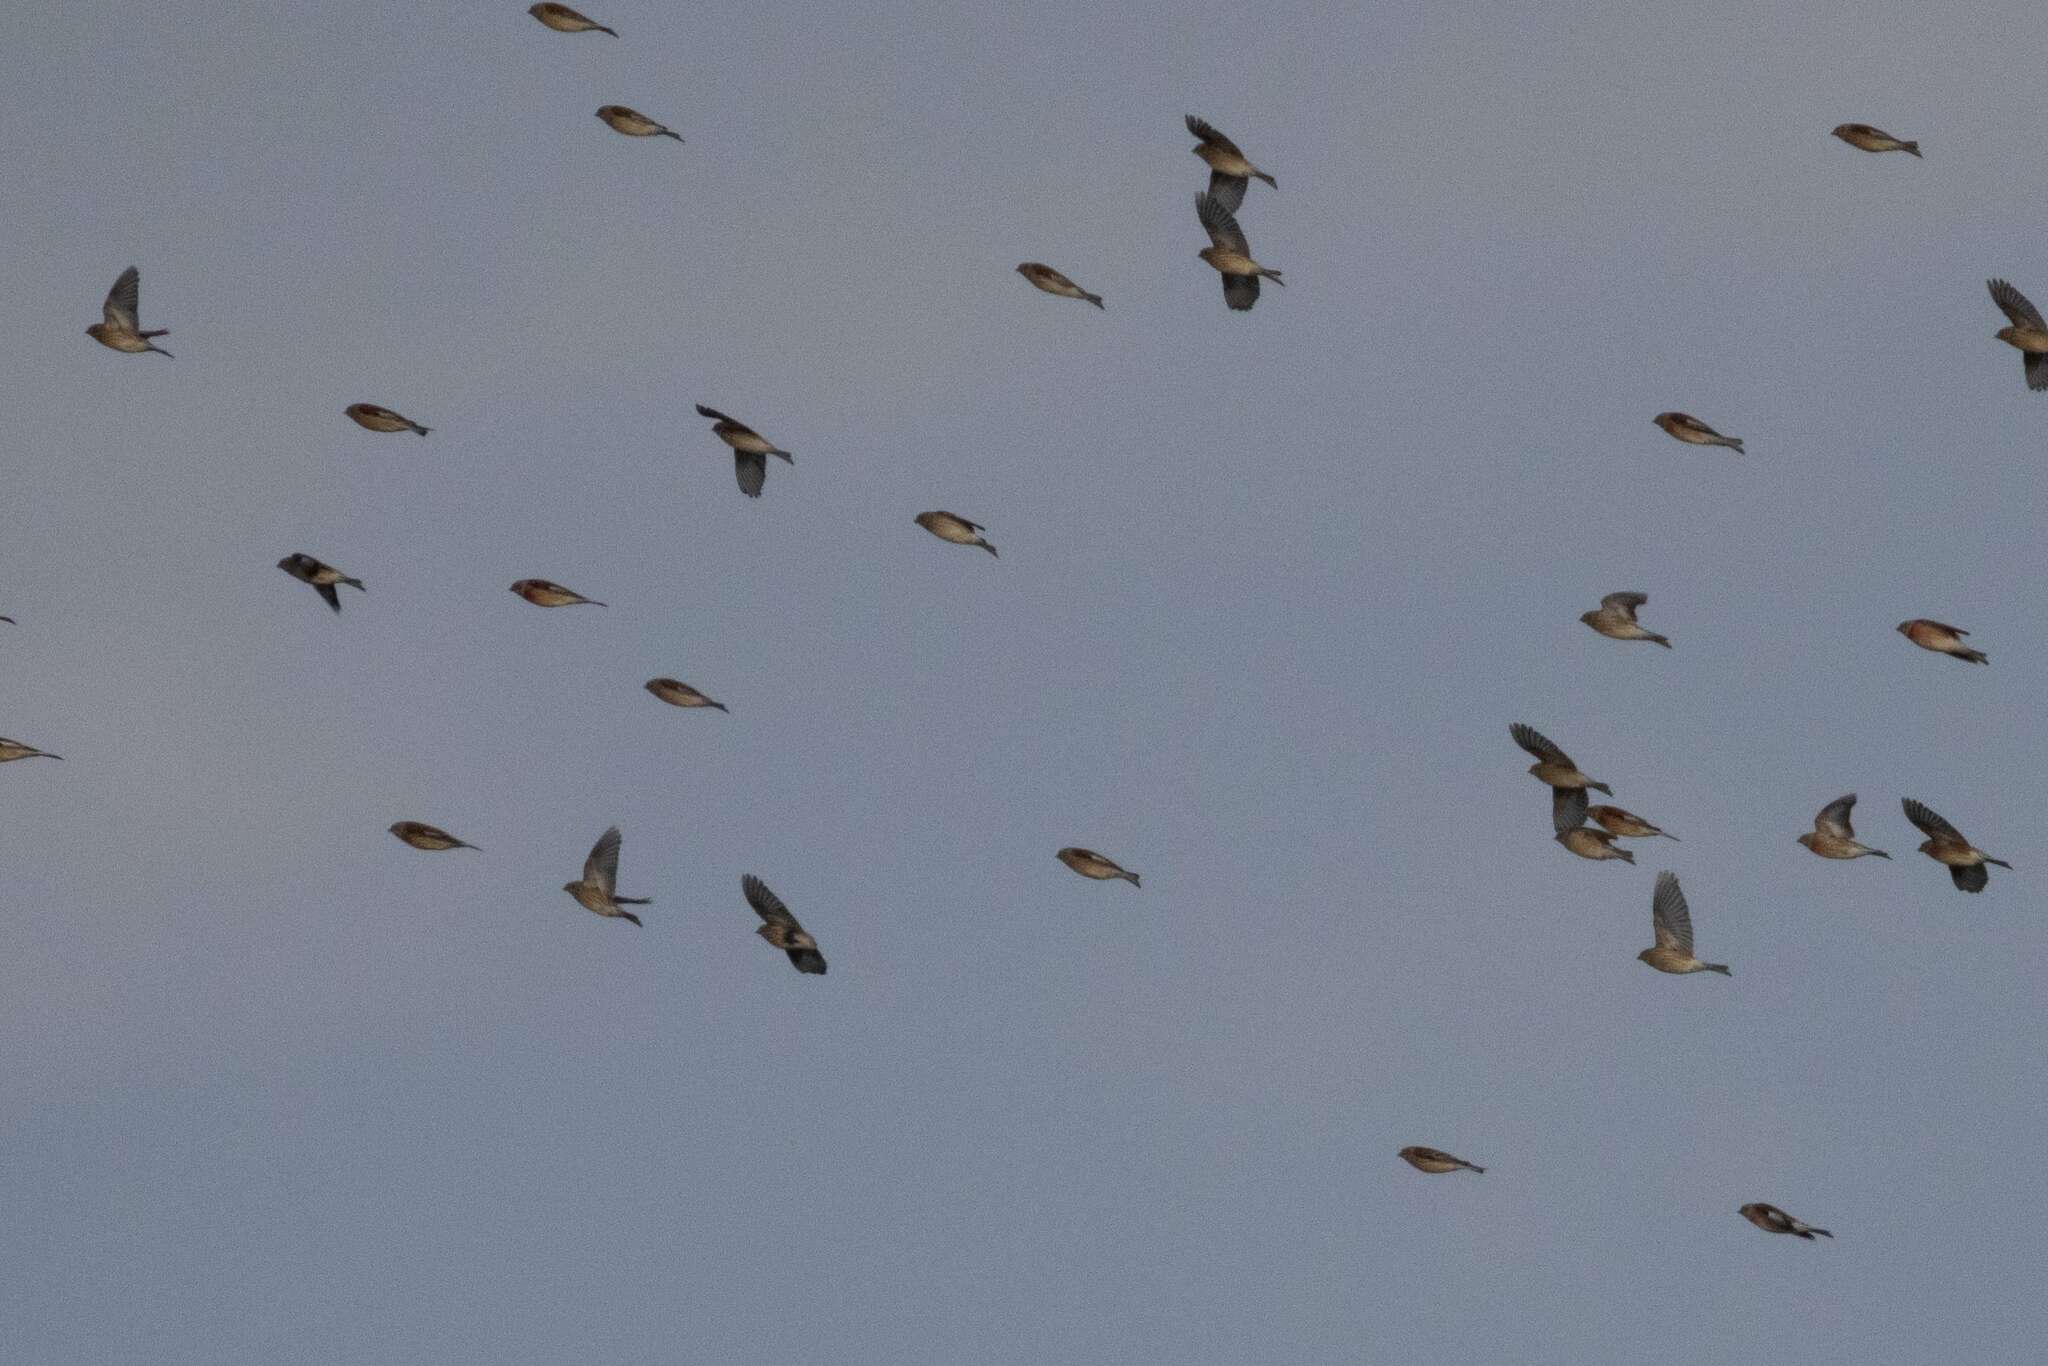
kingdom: Animalia
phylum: Chordata
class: Aves
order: Passeriformes
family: Fringillidae
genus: Linaria
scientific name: Linaria cannabina
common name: Common linnet
